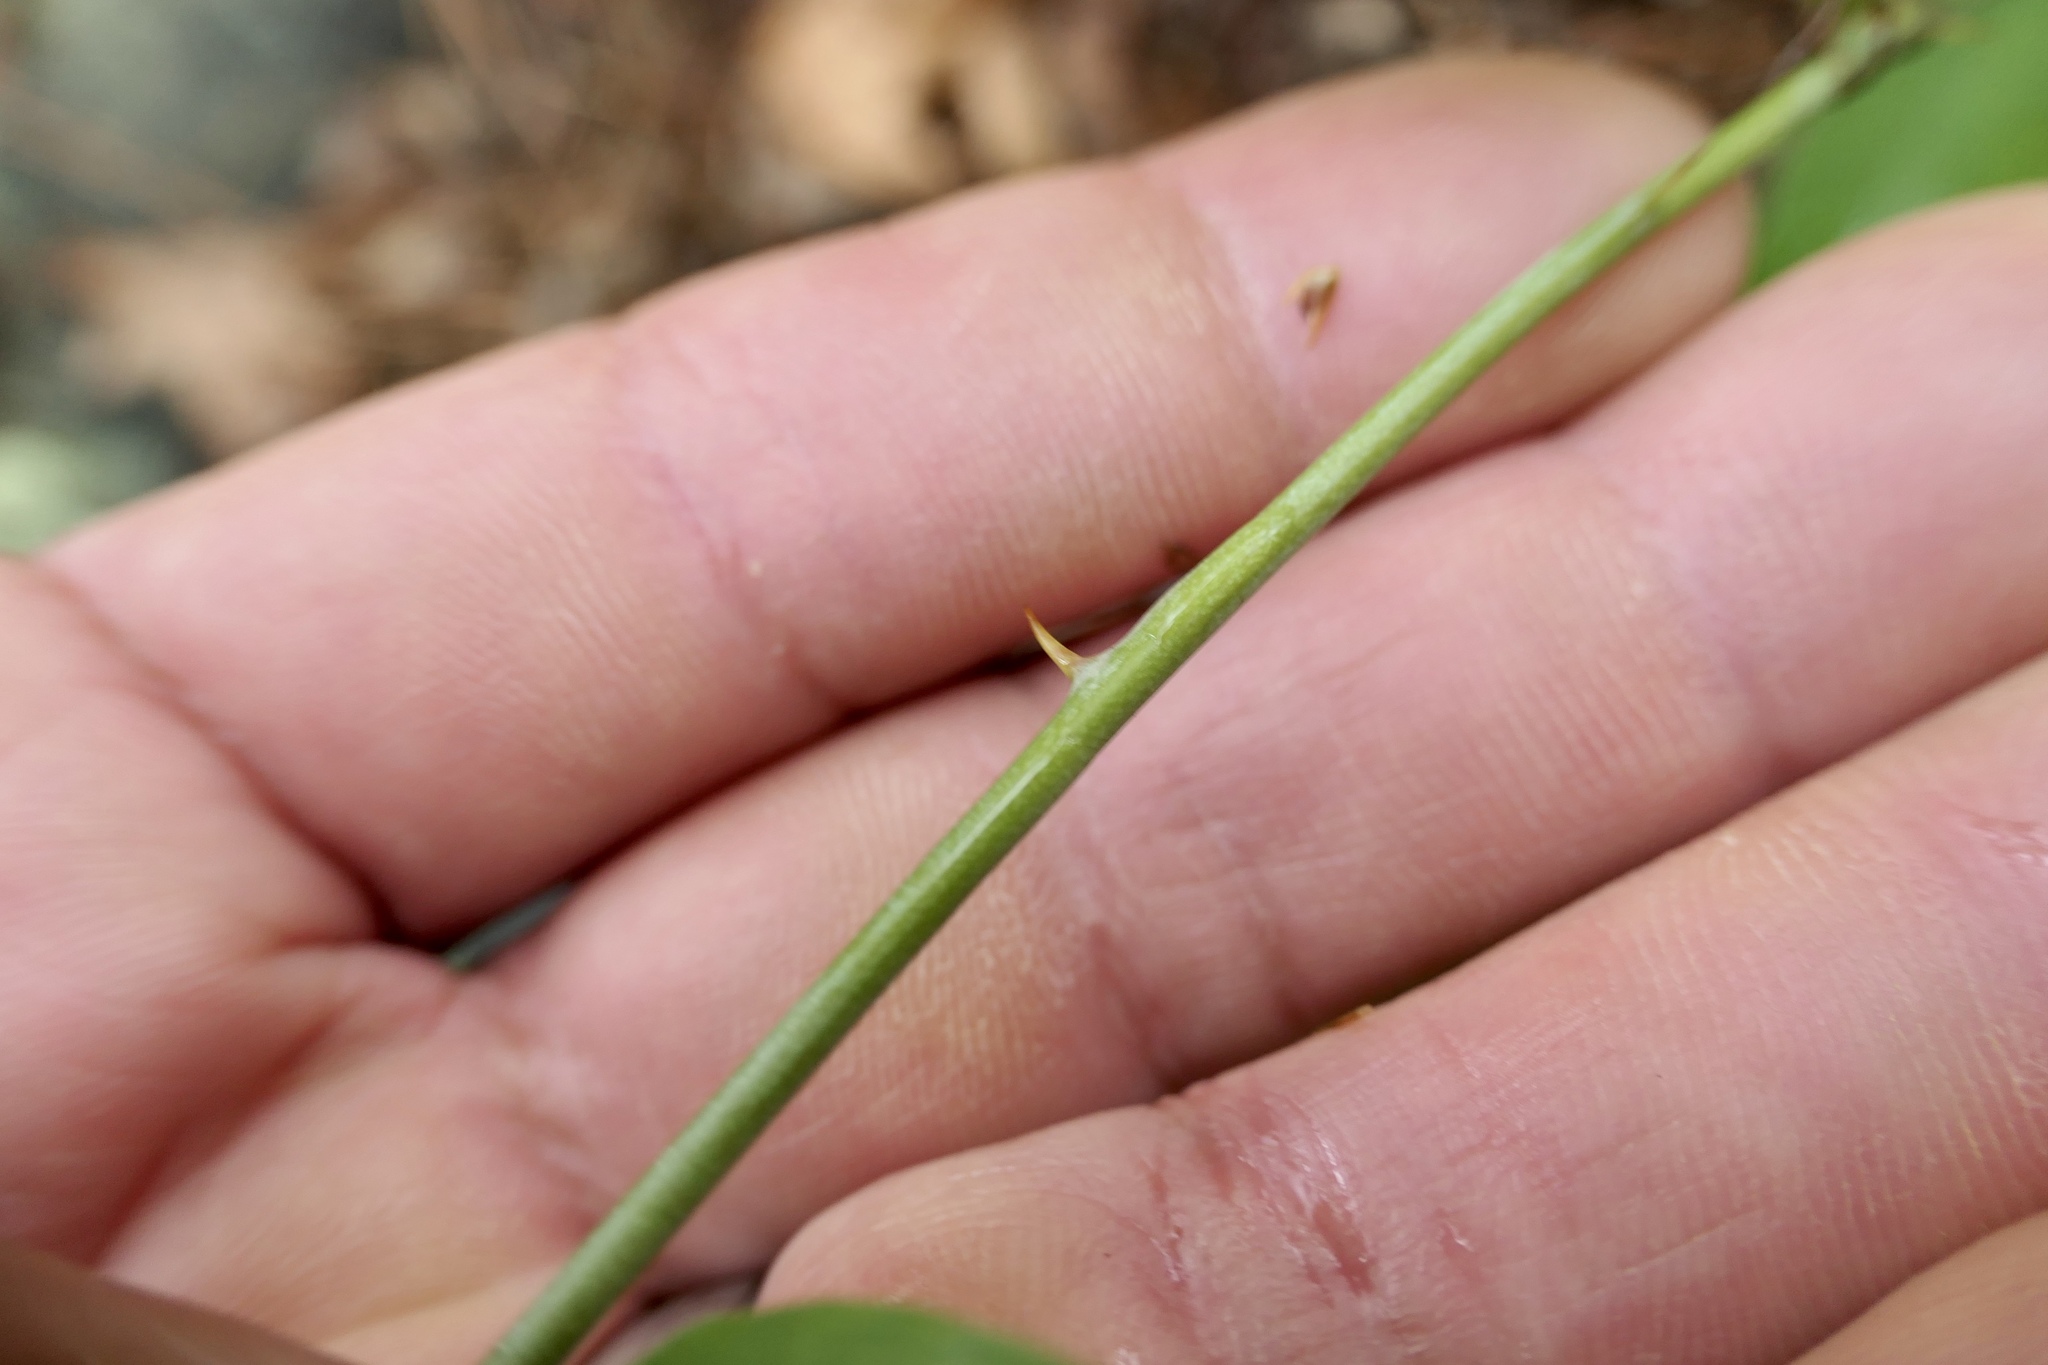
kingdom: Plantae
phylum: Tracheophyta
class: Liliopsida
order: Liliales
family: Smilacaceae
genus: Smilax
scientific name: Smilax glauca
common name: Cat greenbrier
